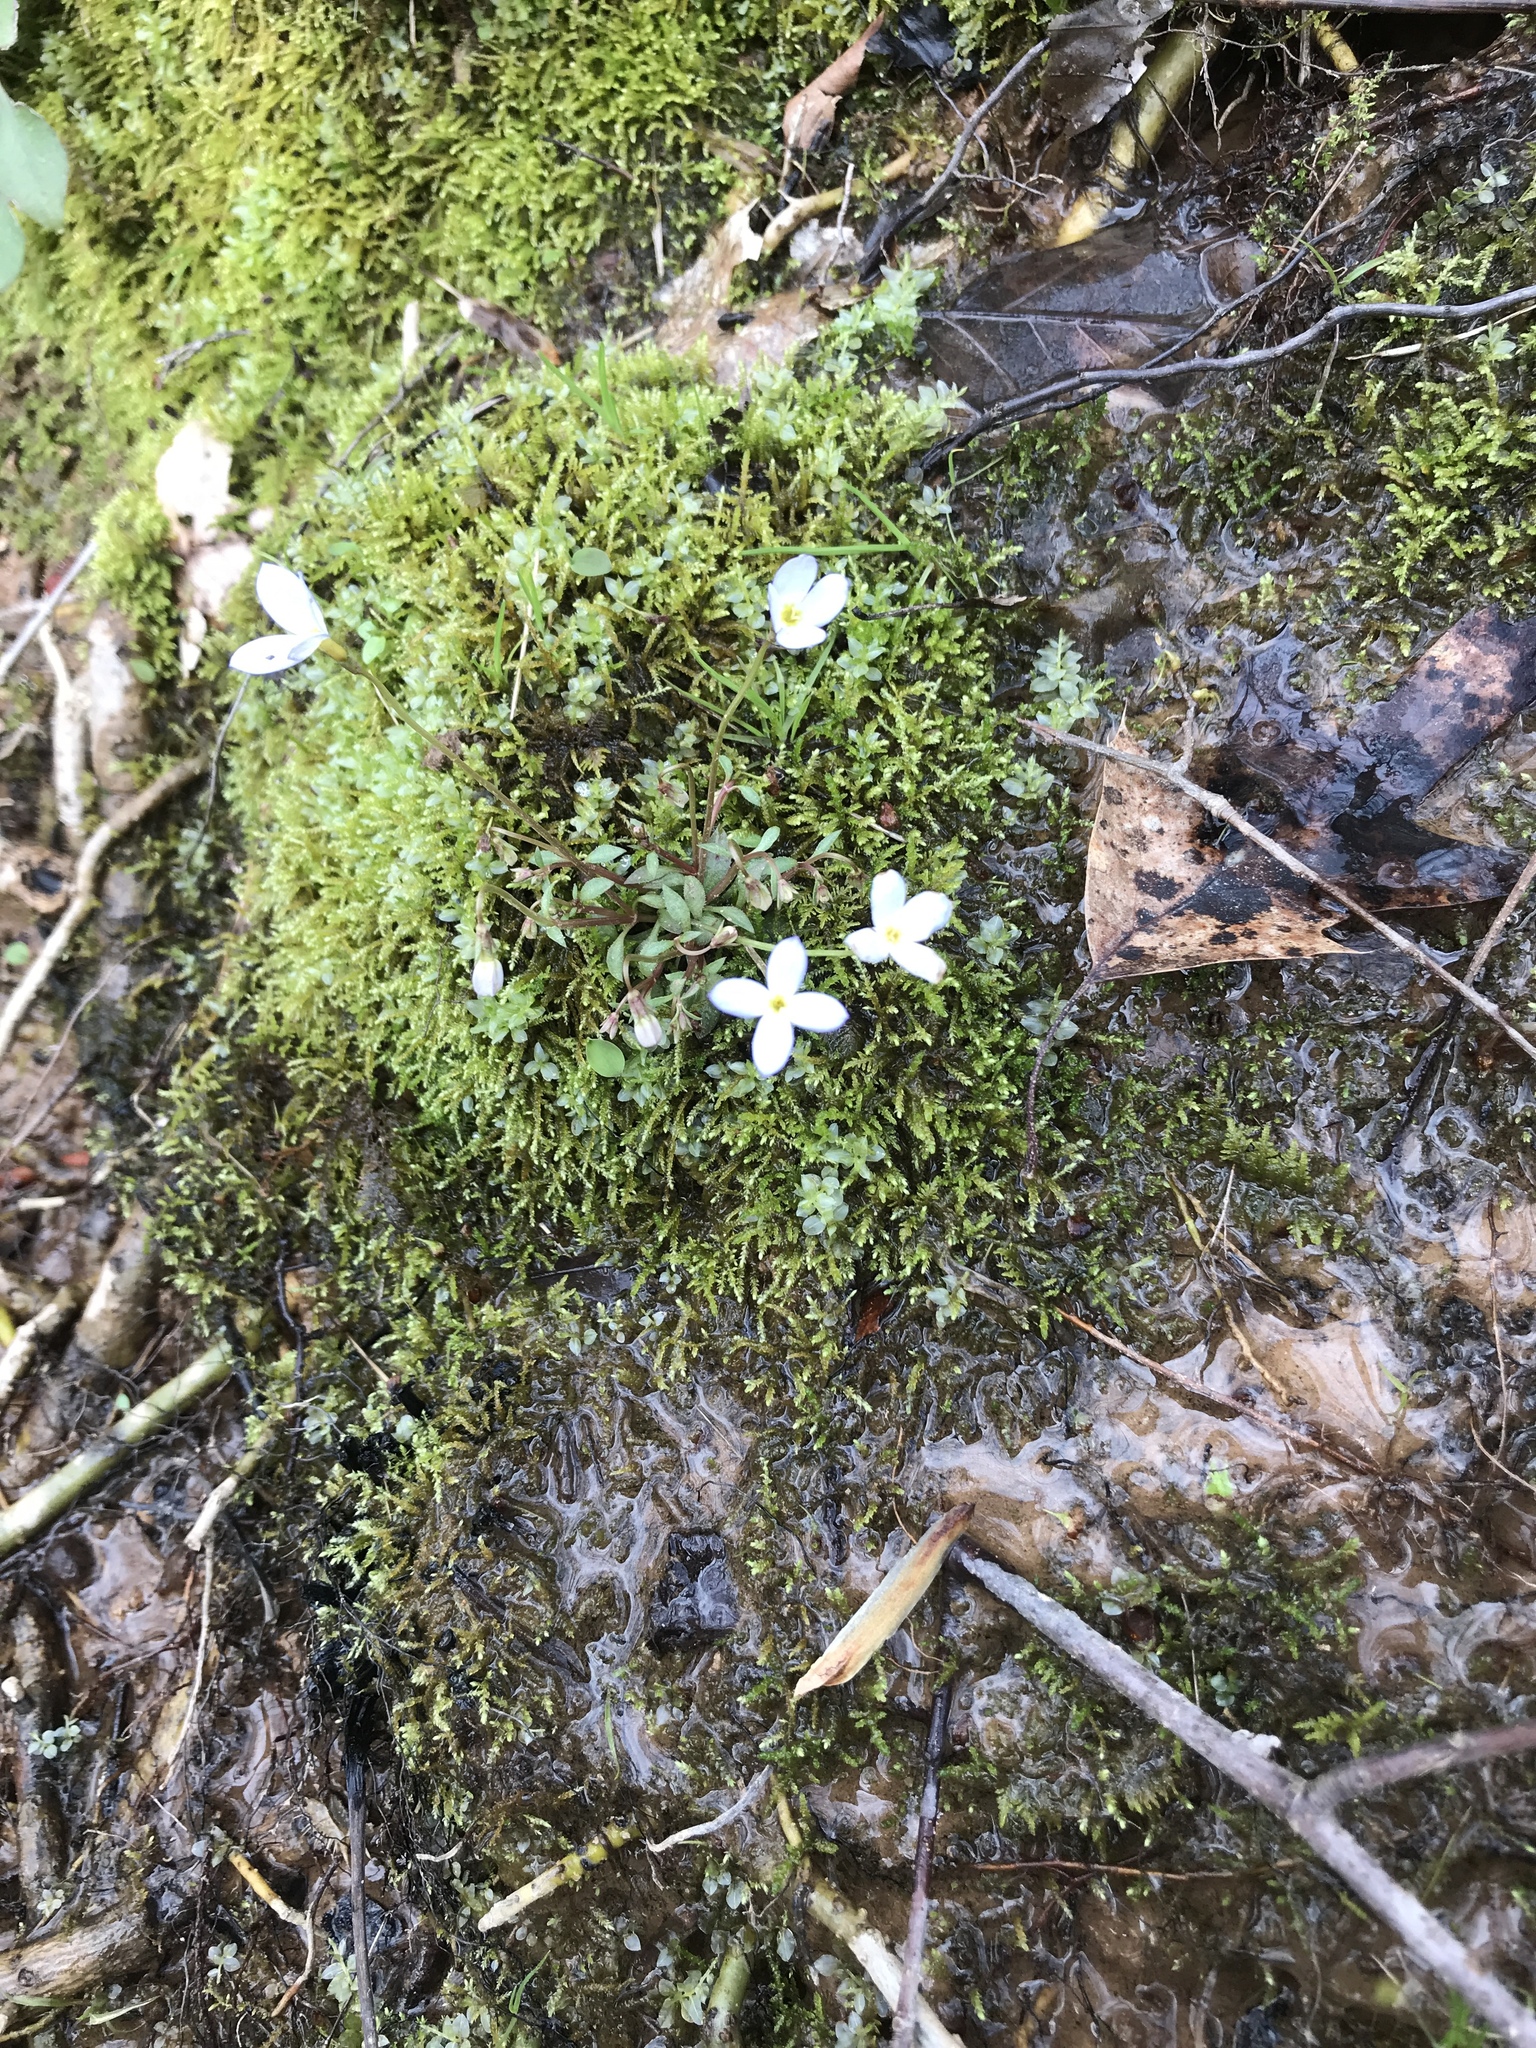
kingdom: Plantae
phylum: Tracheophyta
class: Magnoliopsida
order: Gentianales
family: Rubiaceae
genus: Houstonia
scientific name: Houstonia caerulea
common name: Bluets
